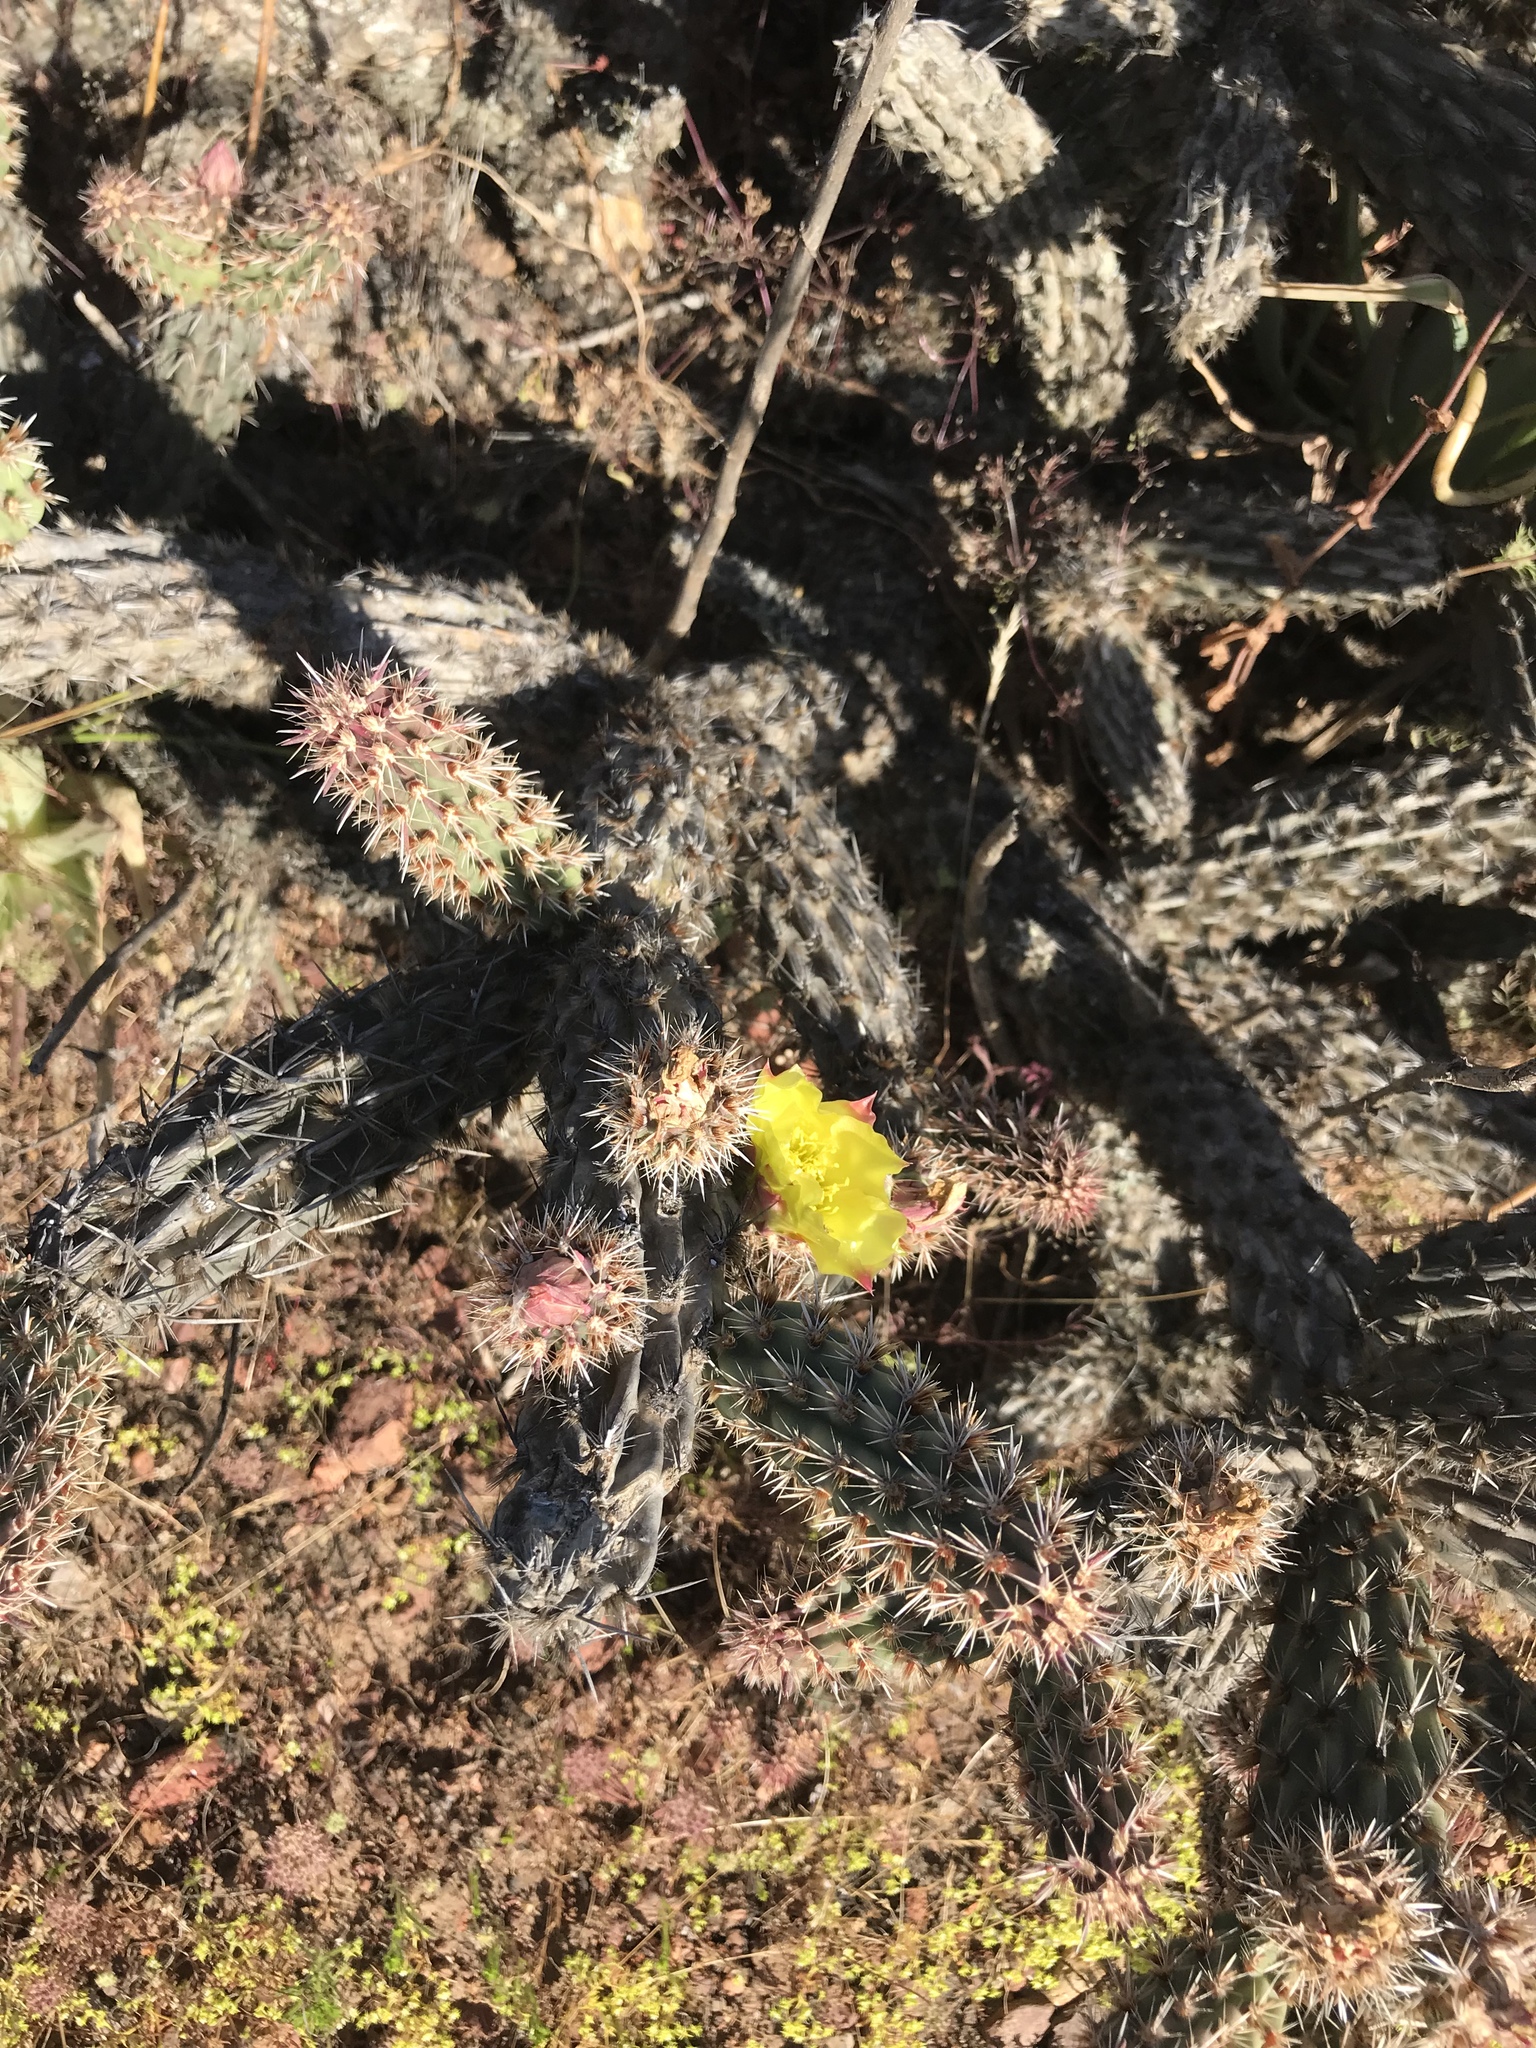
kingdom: Plantae
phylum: Tracheophyta
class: Magnoliopsida
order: Caryophyllales
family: Cactaceae
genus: Cylindropuntia
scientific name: Cylindropuntia californica
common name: Snake cholla
